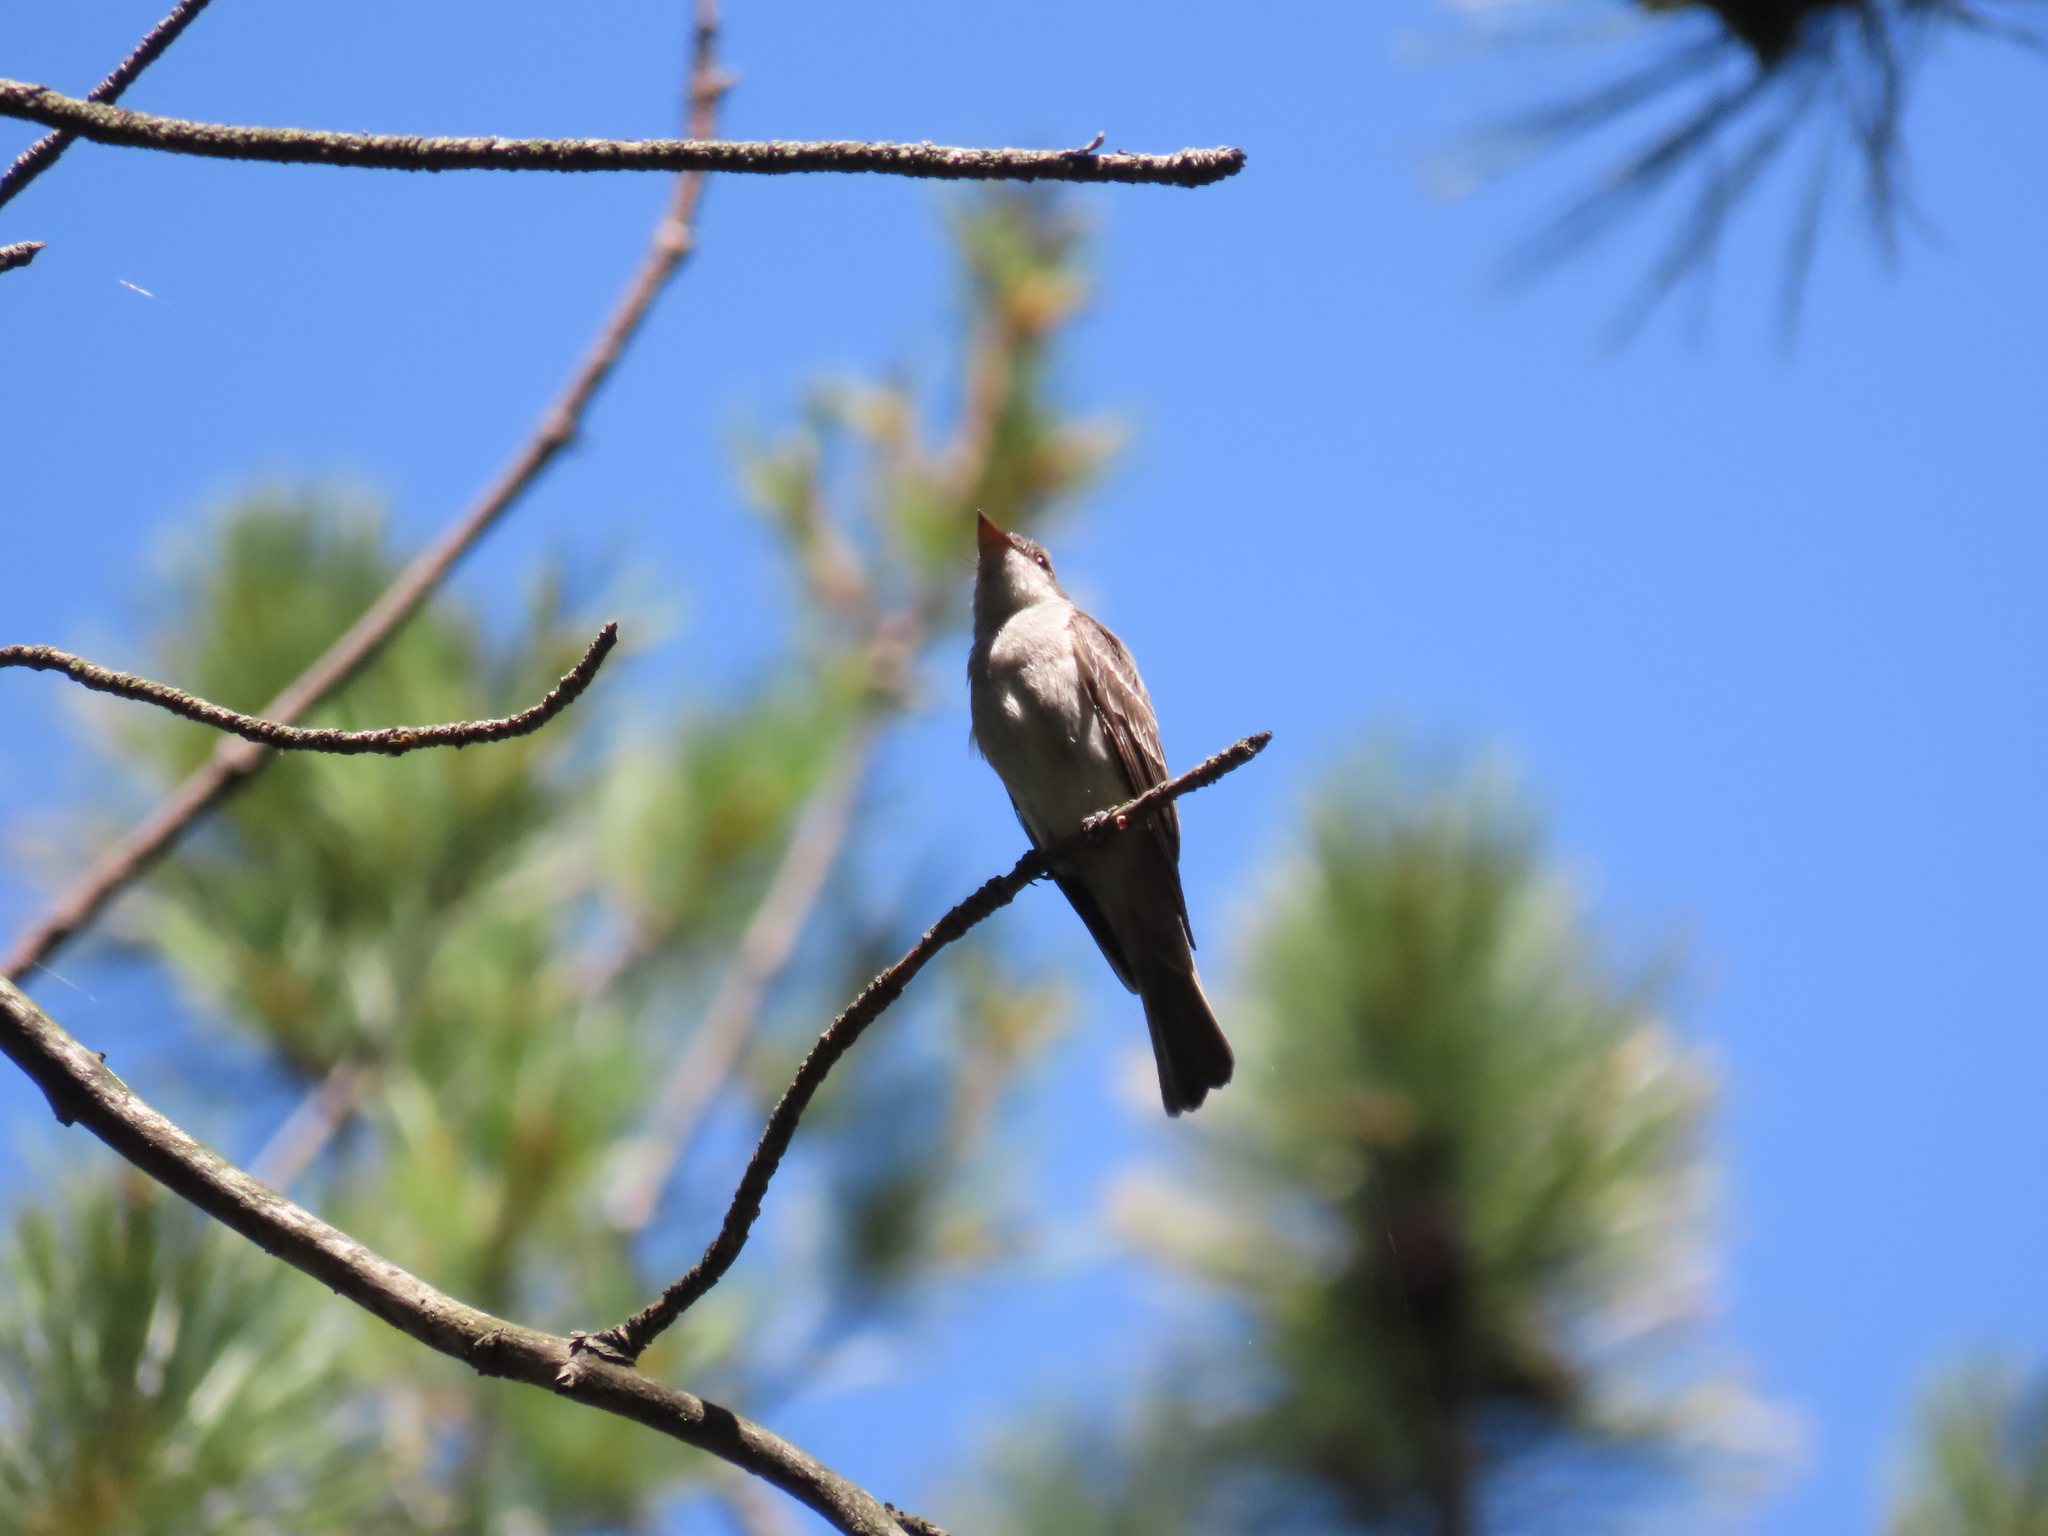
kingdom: Animalia
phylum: Chordata
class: Aves
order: Passeriformes
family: Tyrannidae
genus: Contopus
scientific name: Contopus virens
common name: Eastern wood-pewee
